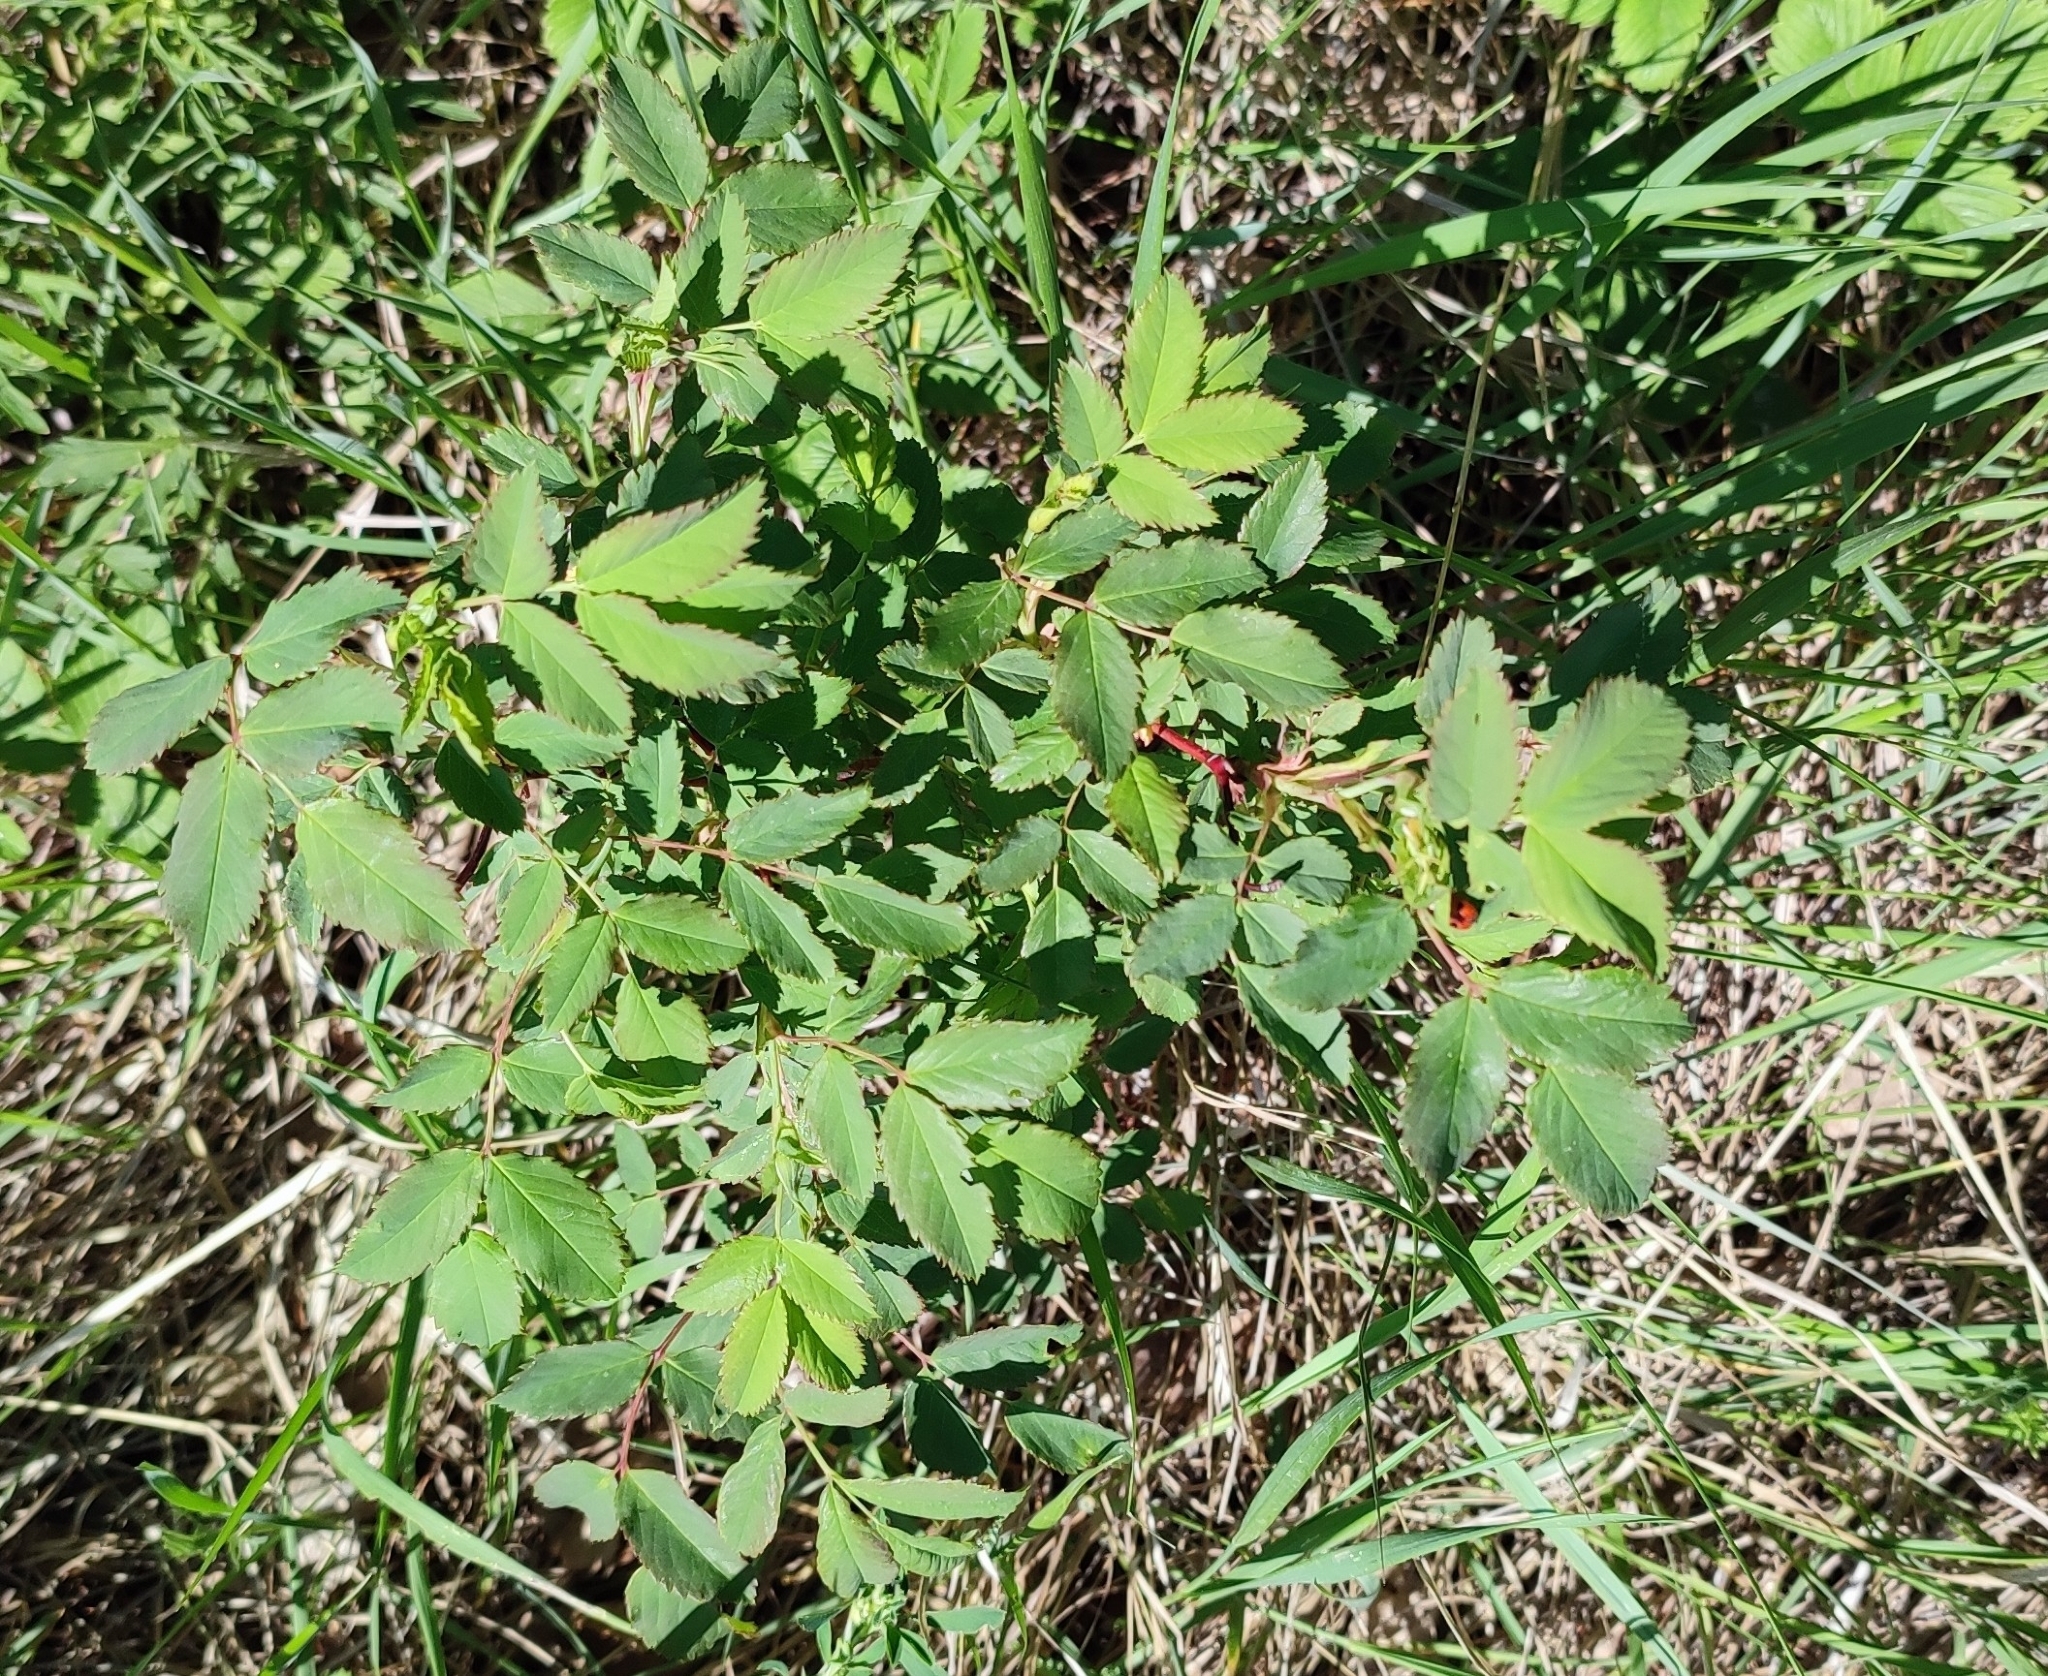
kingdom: Plantae
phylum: Tracheophyta
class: Magnoliopsida
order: Rosales
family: Rosaceae
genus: Rosa
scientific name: Rosa glabrifolia
